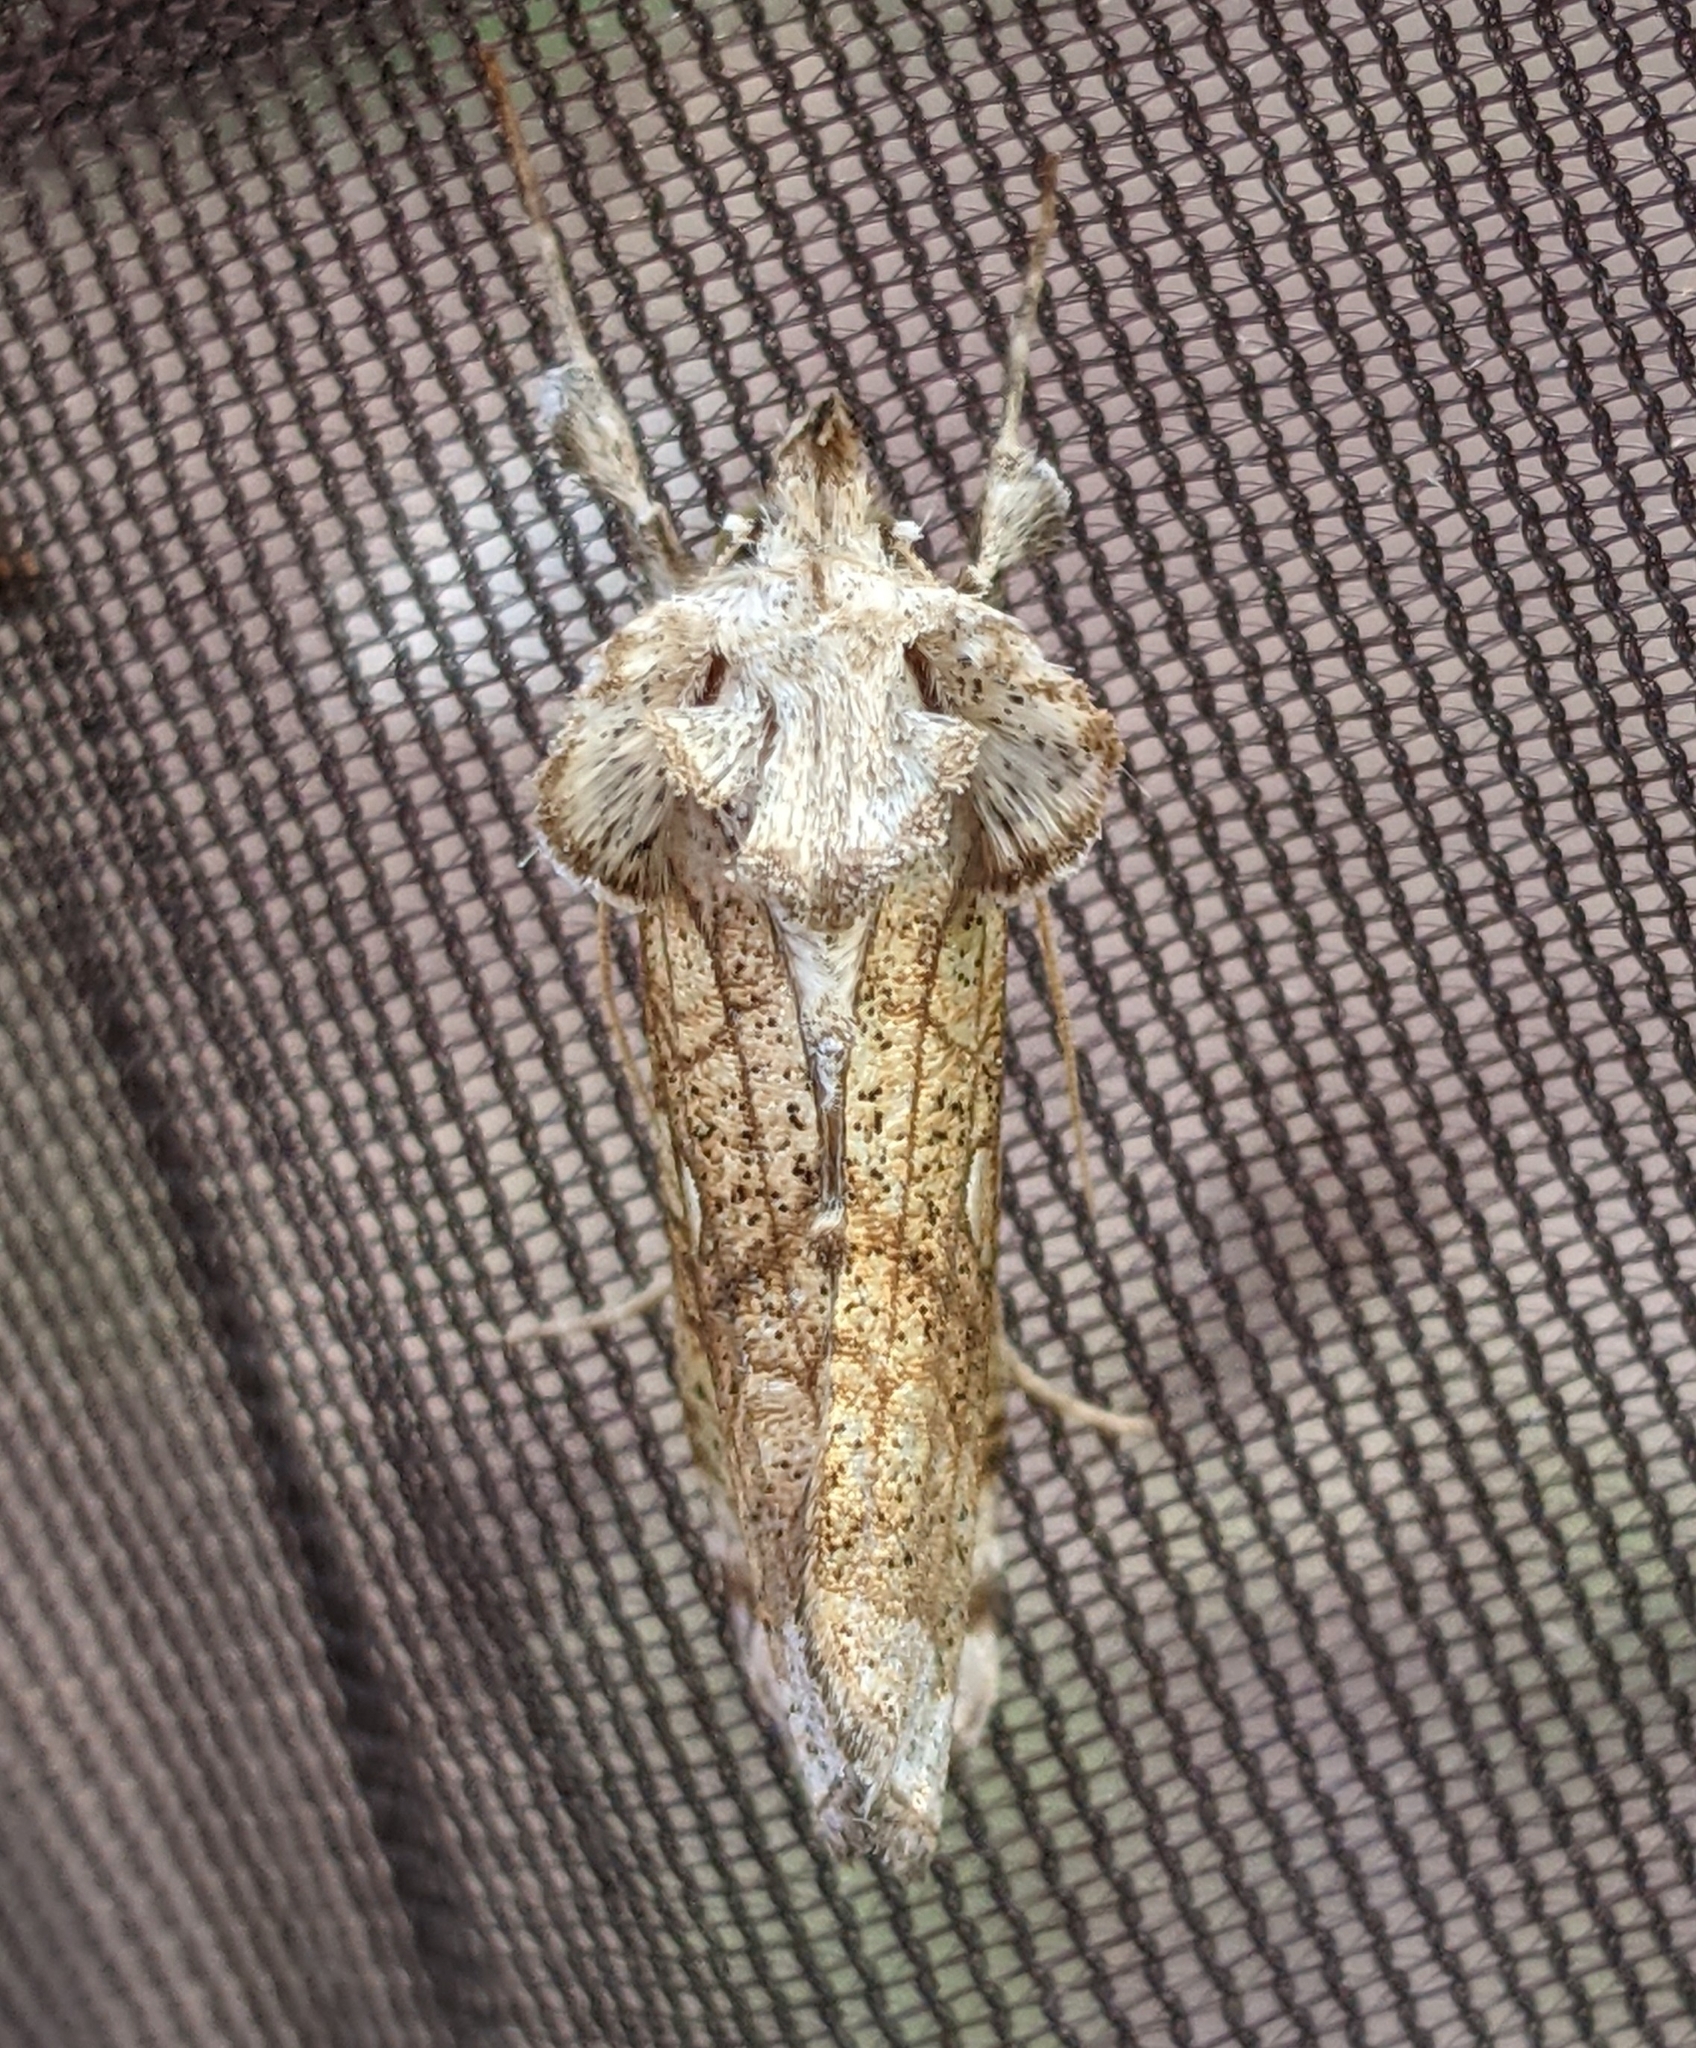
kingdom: Animalia
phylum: Arthropoda
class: Insecta
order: Lepidoptera
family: Noctuidae
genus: Polychrysia
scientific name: Polychrysia esmeralda
